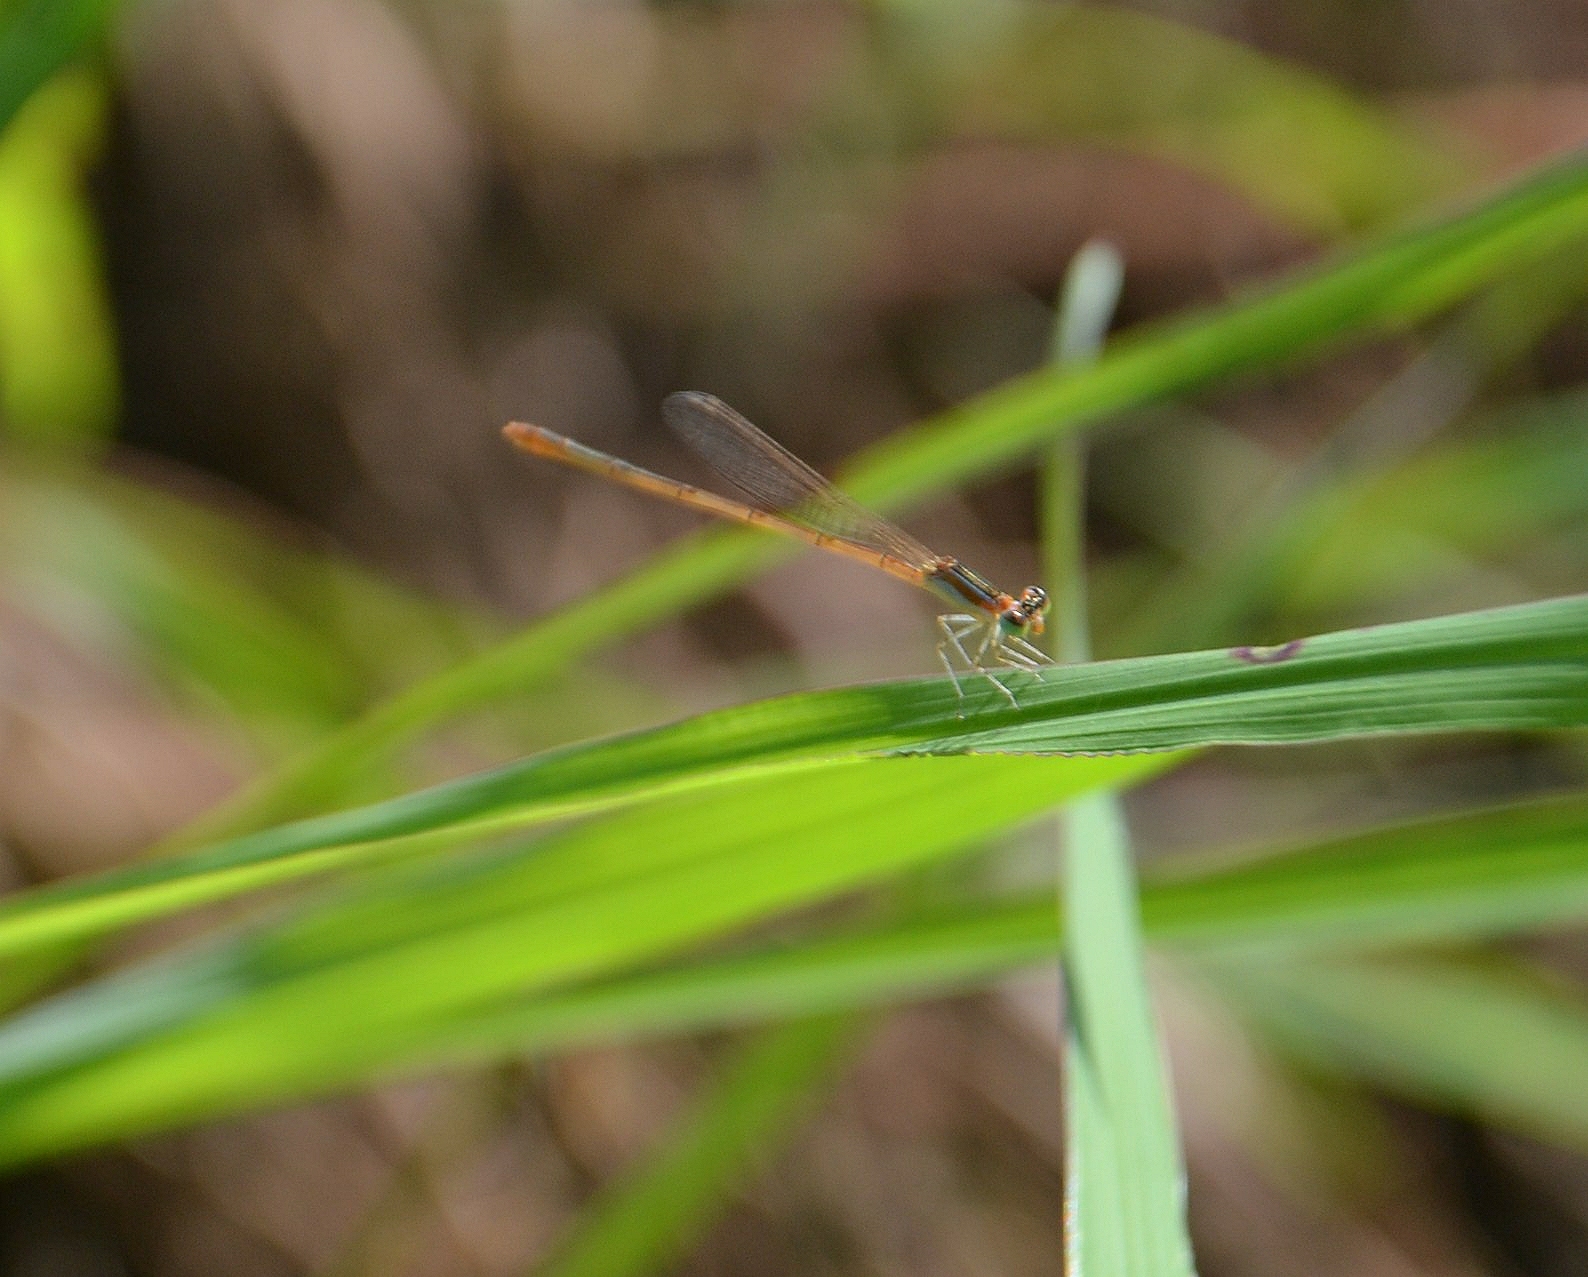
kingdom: Animalia
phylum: Arthropoda
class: Insecta
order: Odonata
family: Coenagrionidae
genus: Agriocnemis
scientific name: Agriocnemis pygmaea
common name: Pygmy wisp
